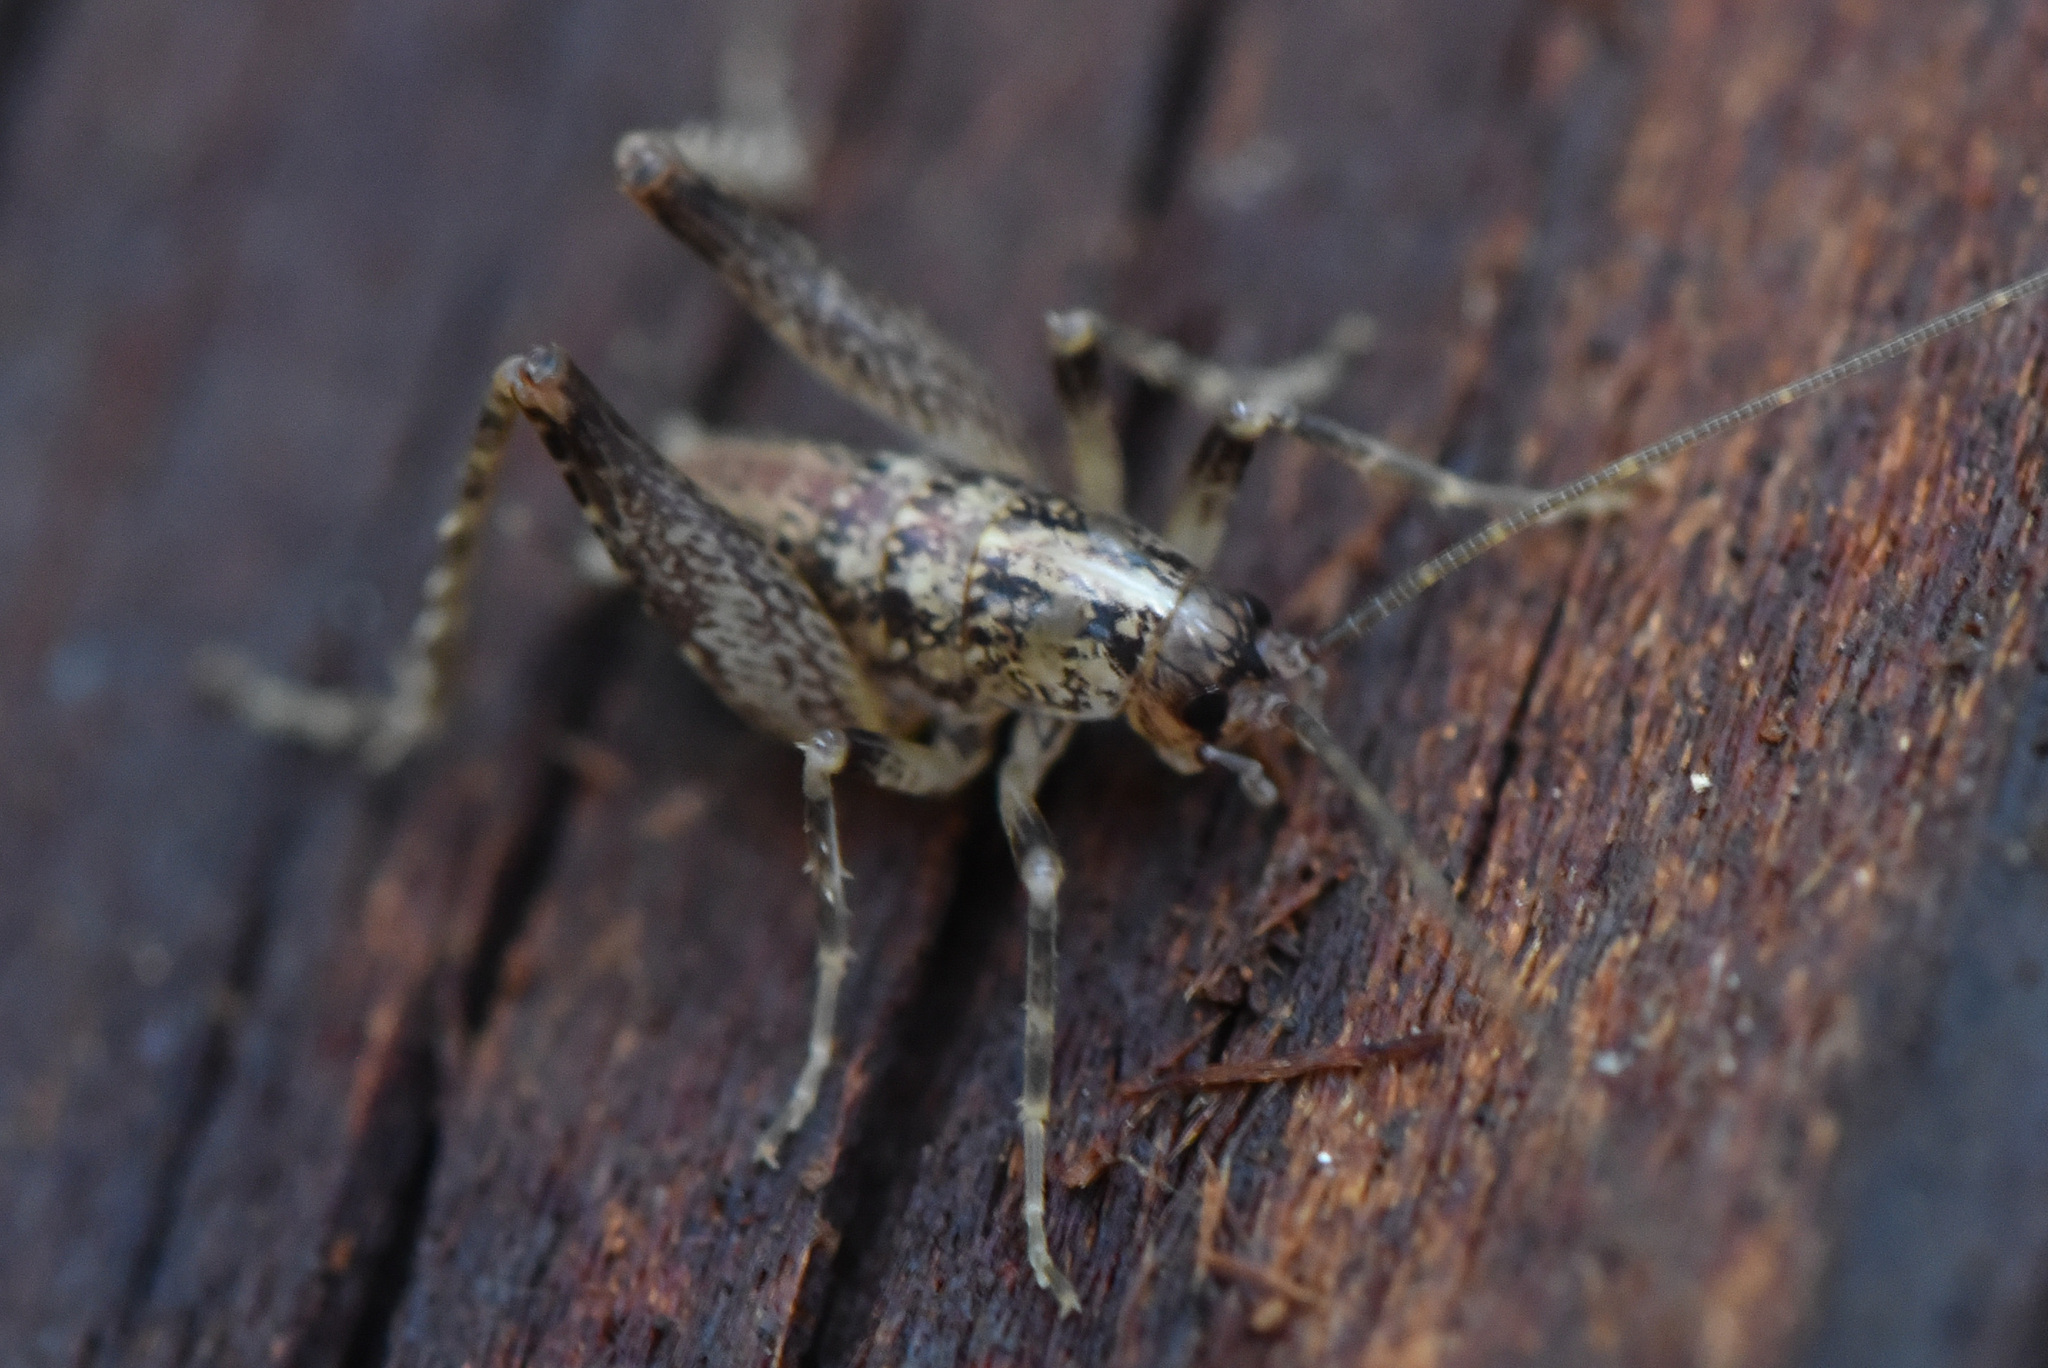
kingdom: Animalia
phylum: Arthropoda
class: Insecta
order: Orthoptera
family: Rhaphidophoridae
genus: Pristoceuthophilus
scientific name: Pristoceuthophilus celatus
